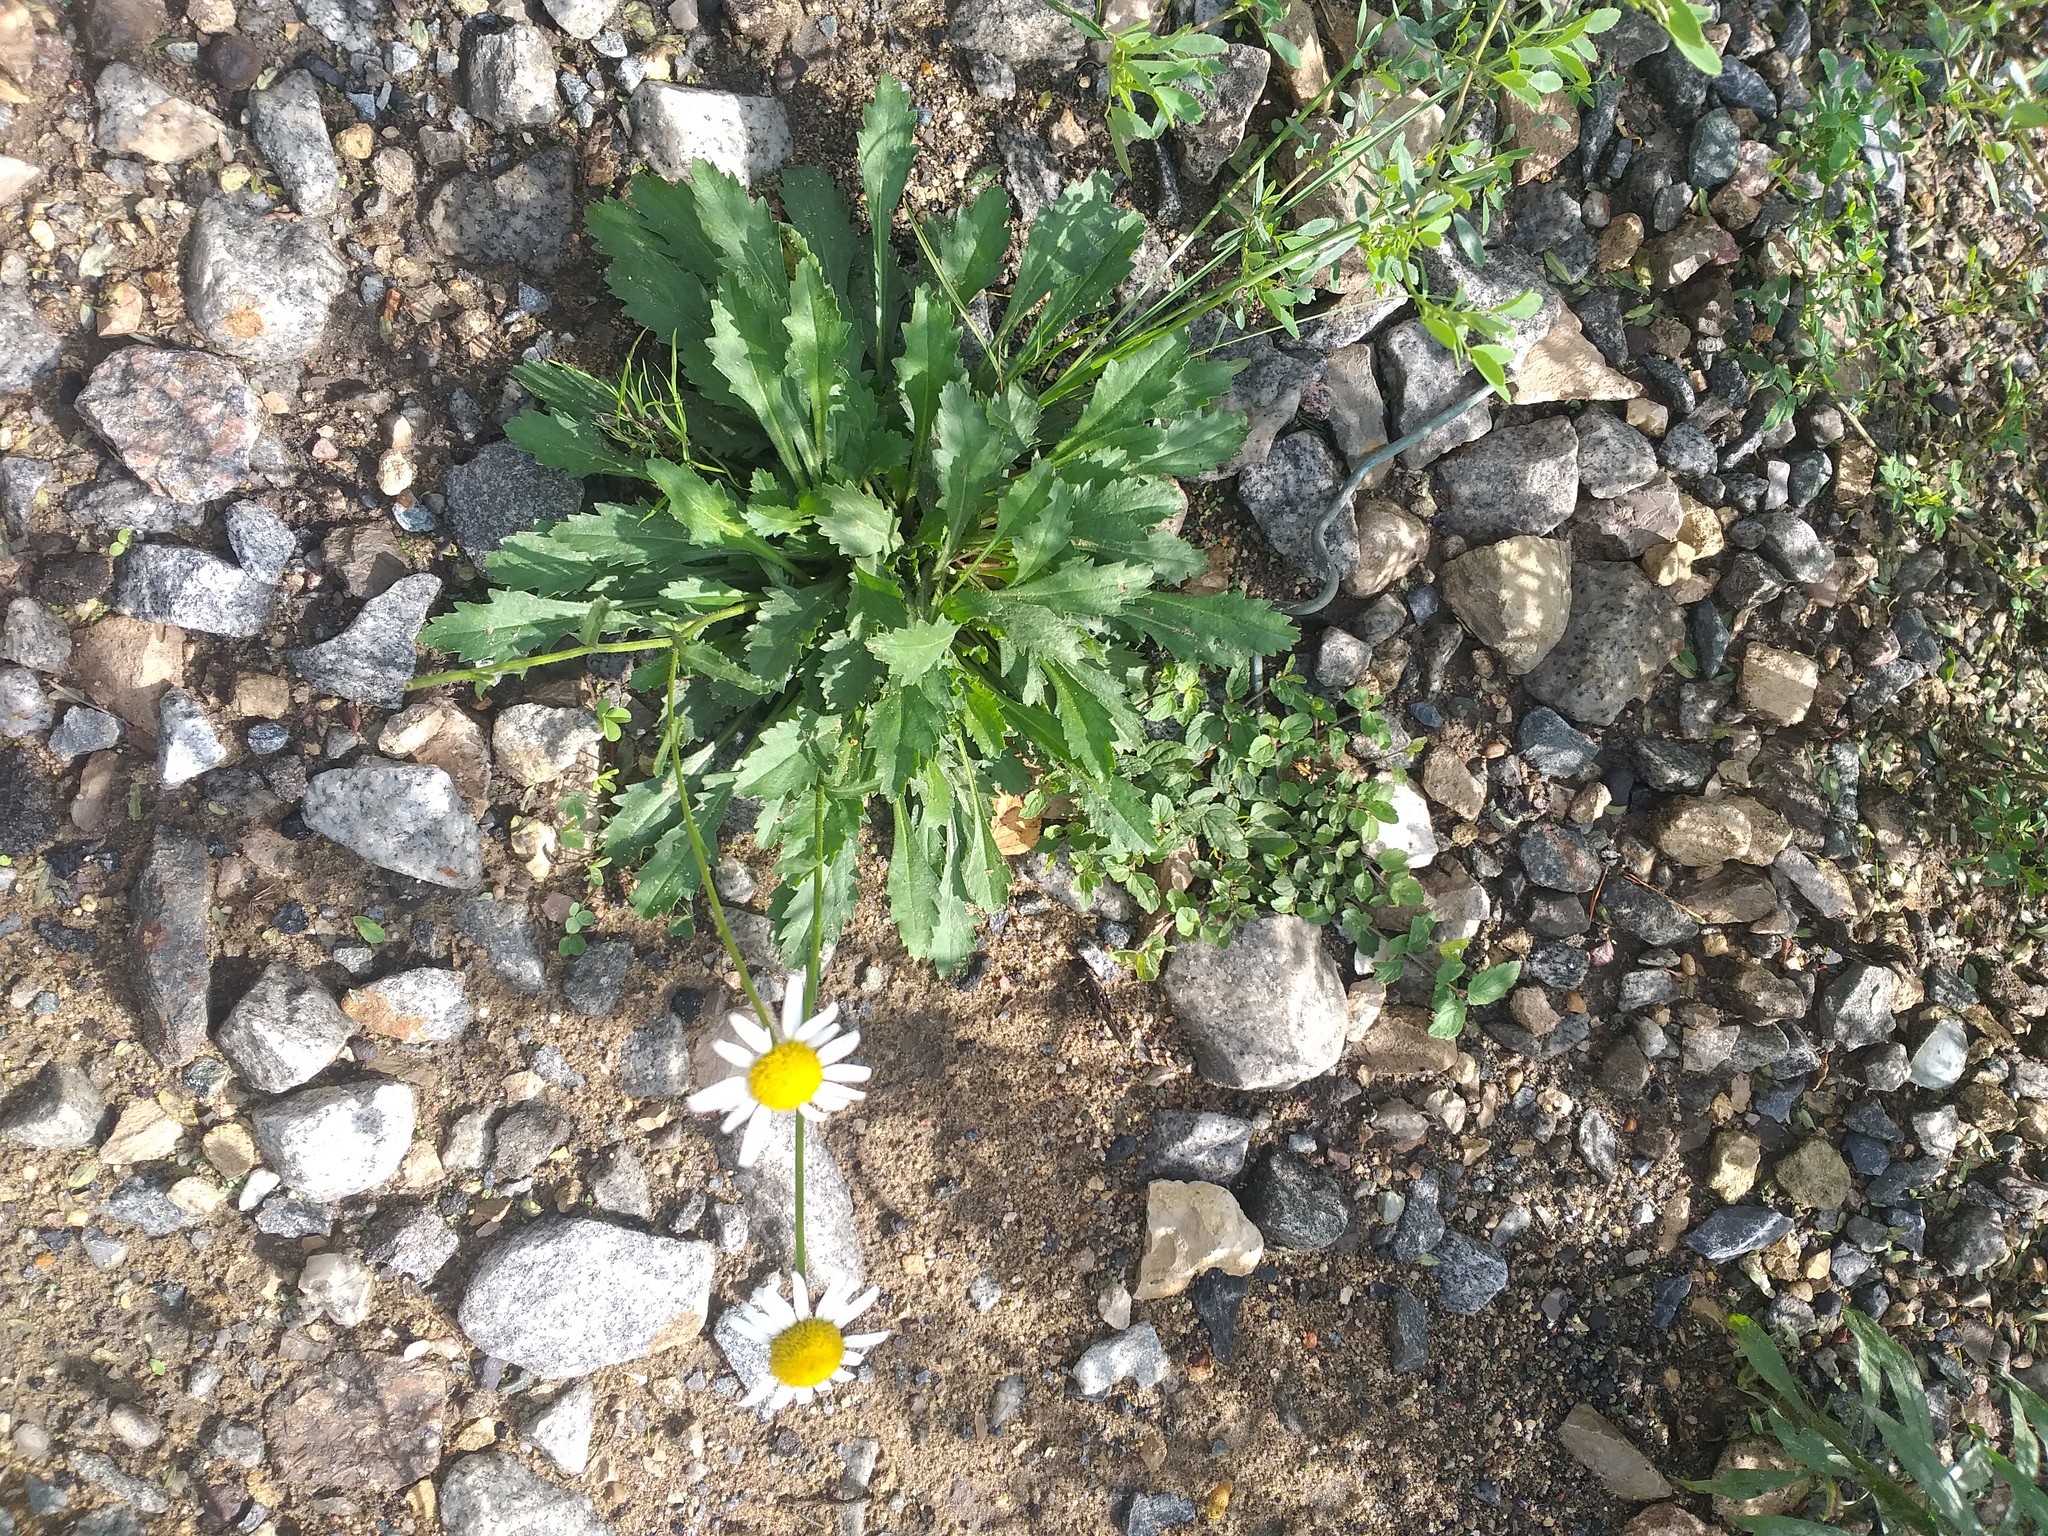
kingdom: Plantae
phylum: Tracheophyta
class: Magnoliopsida
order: Asterales
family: Asteraceae
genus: Leucanthemum
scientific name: Leucanthemum vulgare
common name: Oxeye daisy
